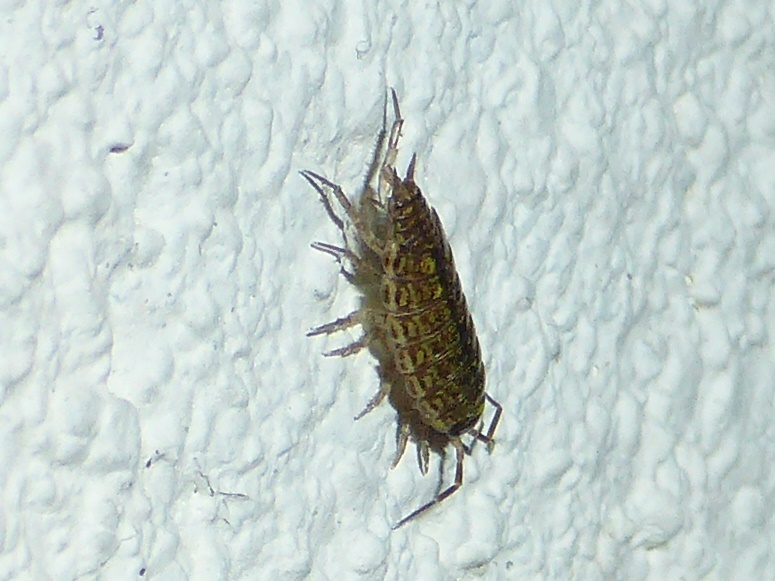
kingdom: Animalia
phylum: Arthropoda
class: Malacostraca
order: Isopoda
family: Philosciidae
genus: Philoscia
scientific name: Philoscia muscorum
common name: Common striped woodlouse
